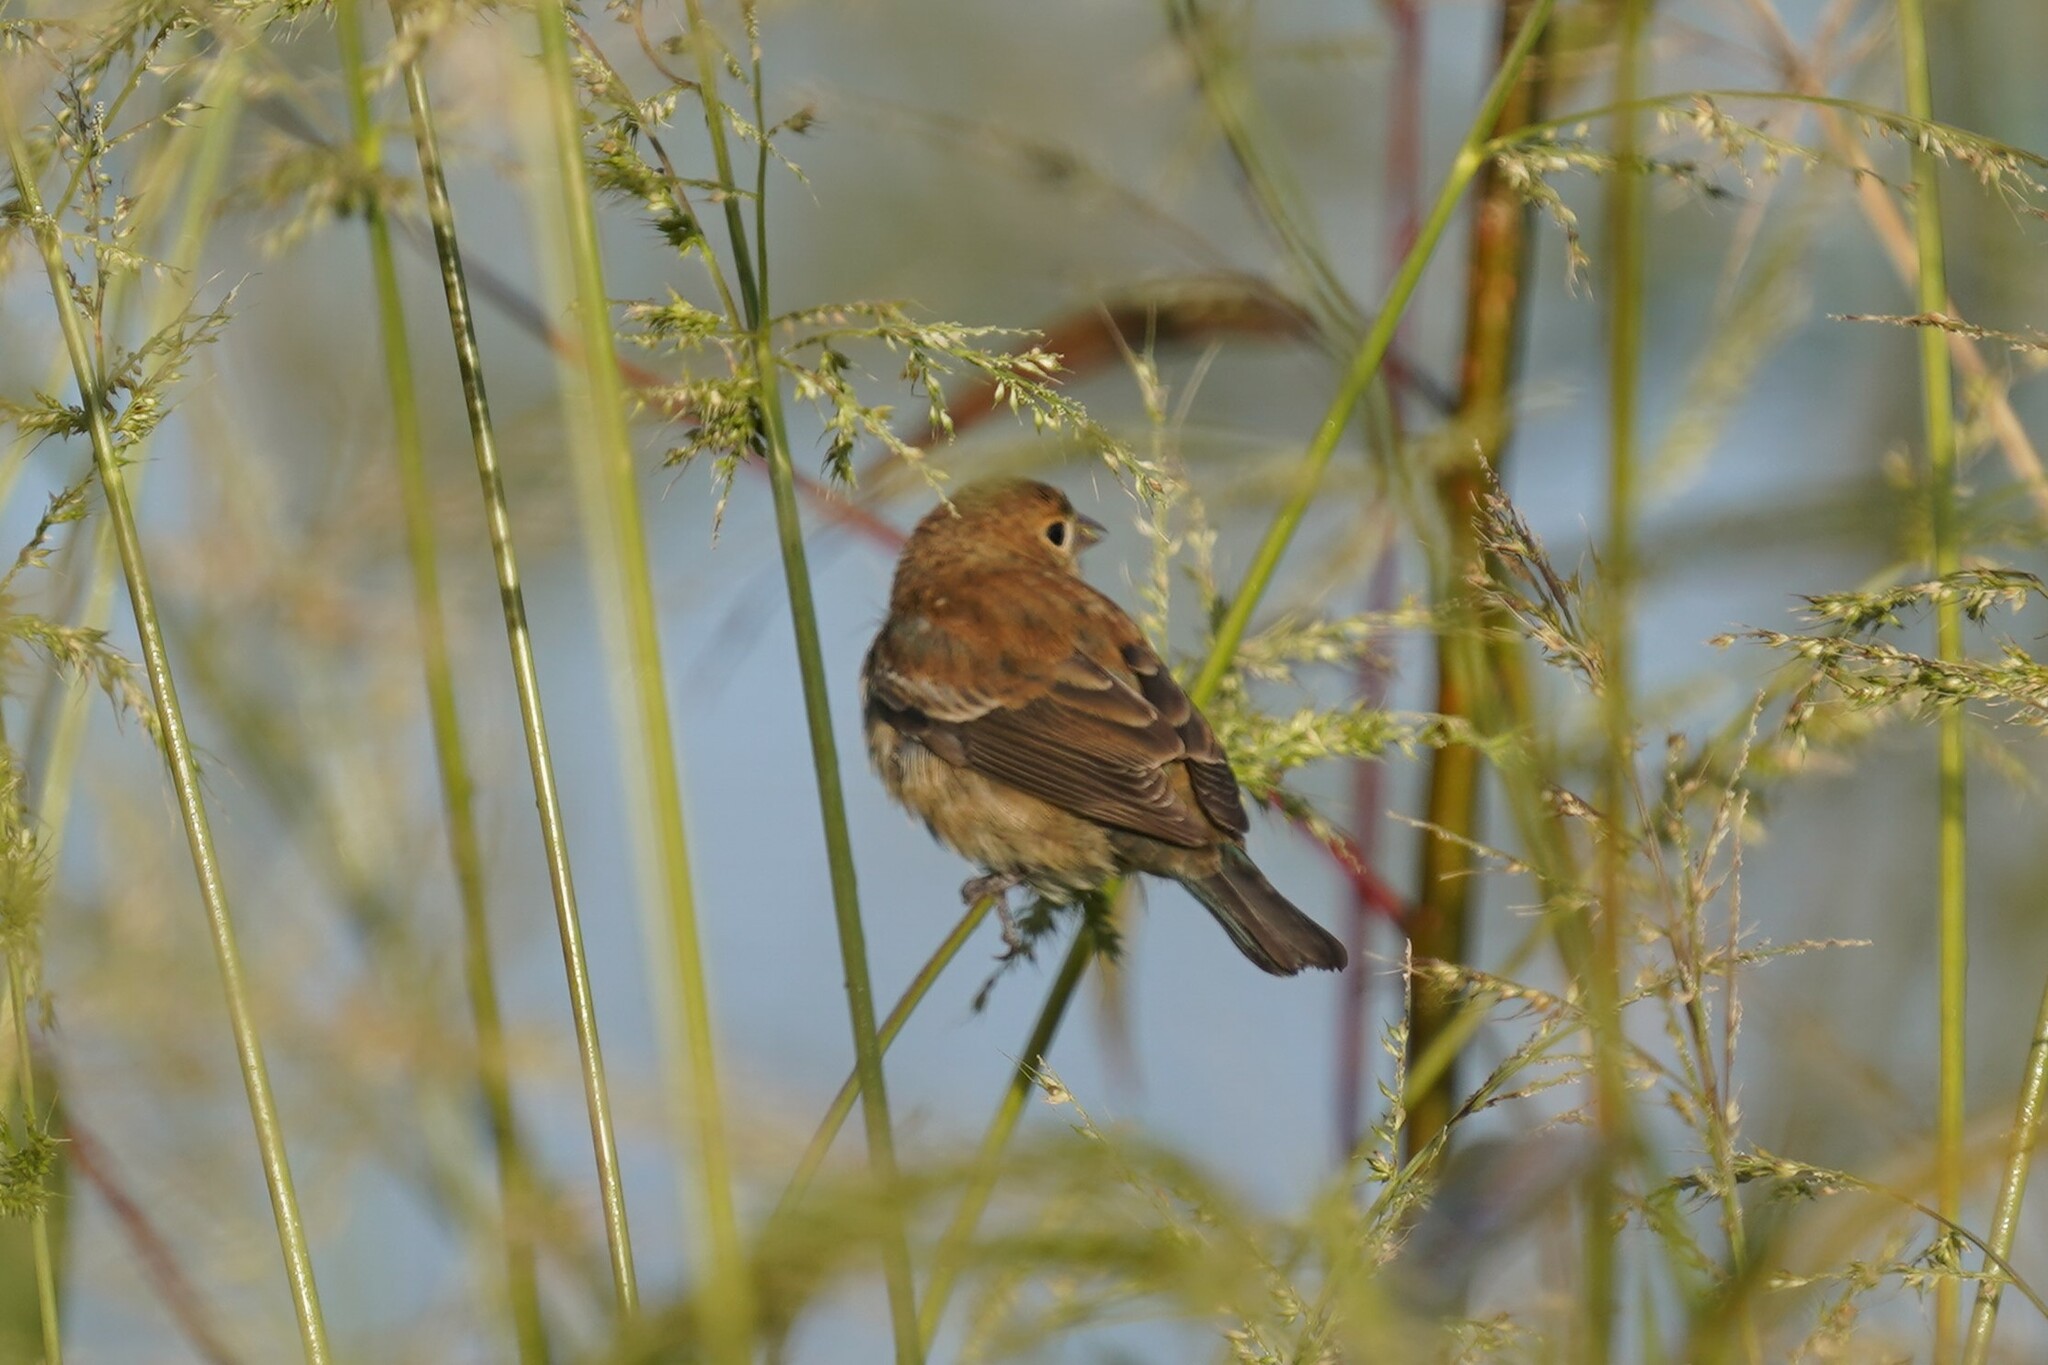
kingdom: Animalia
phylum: Chordata
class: Aves
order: Passeriformes
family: Cardinalidae
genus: Passerina
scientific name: Passerina cyanea
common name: Indigo bunting
